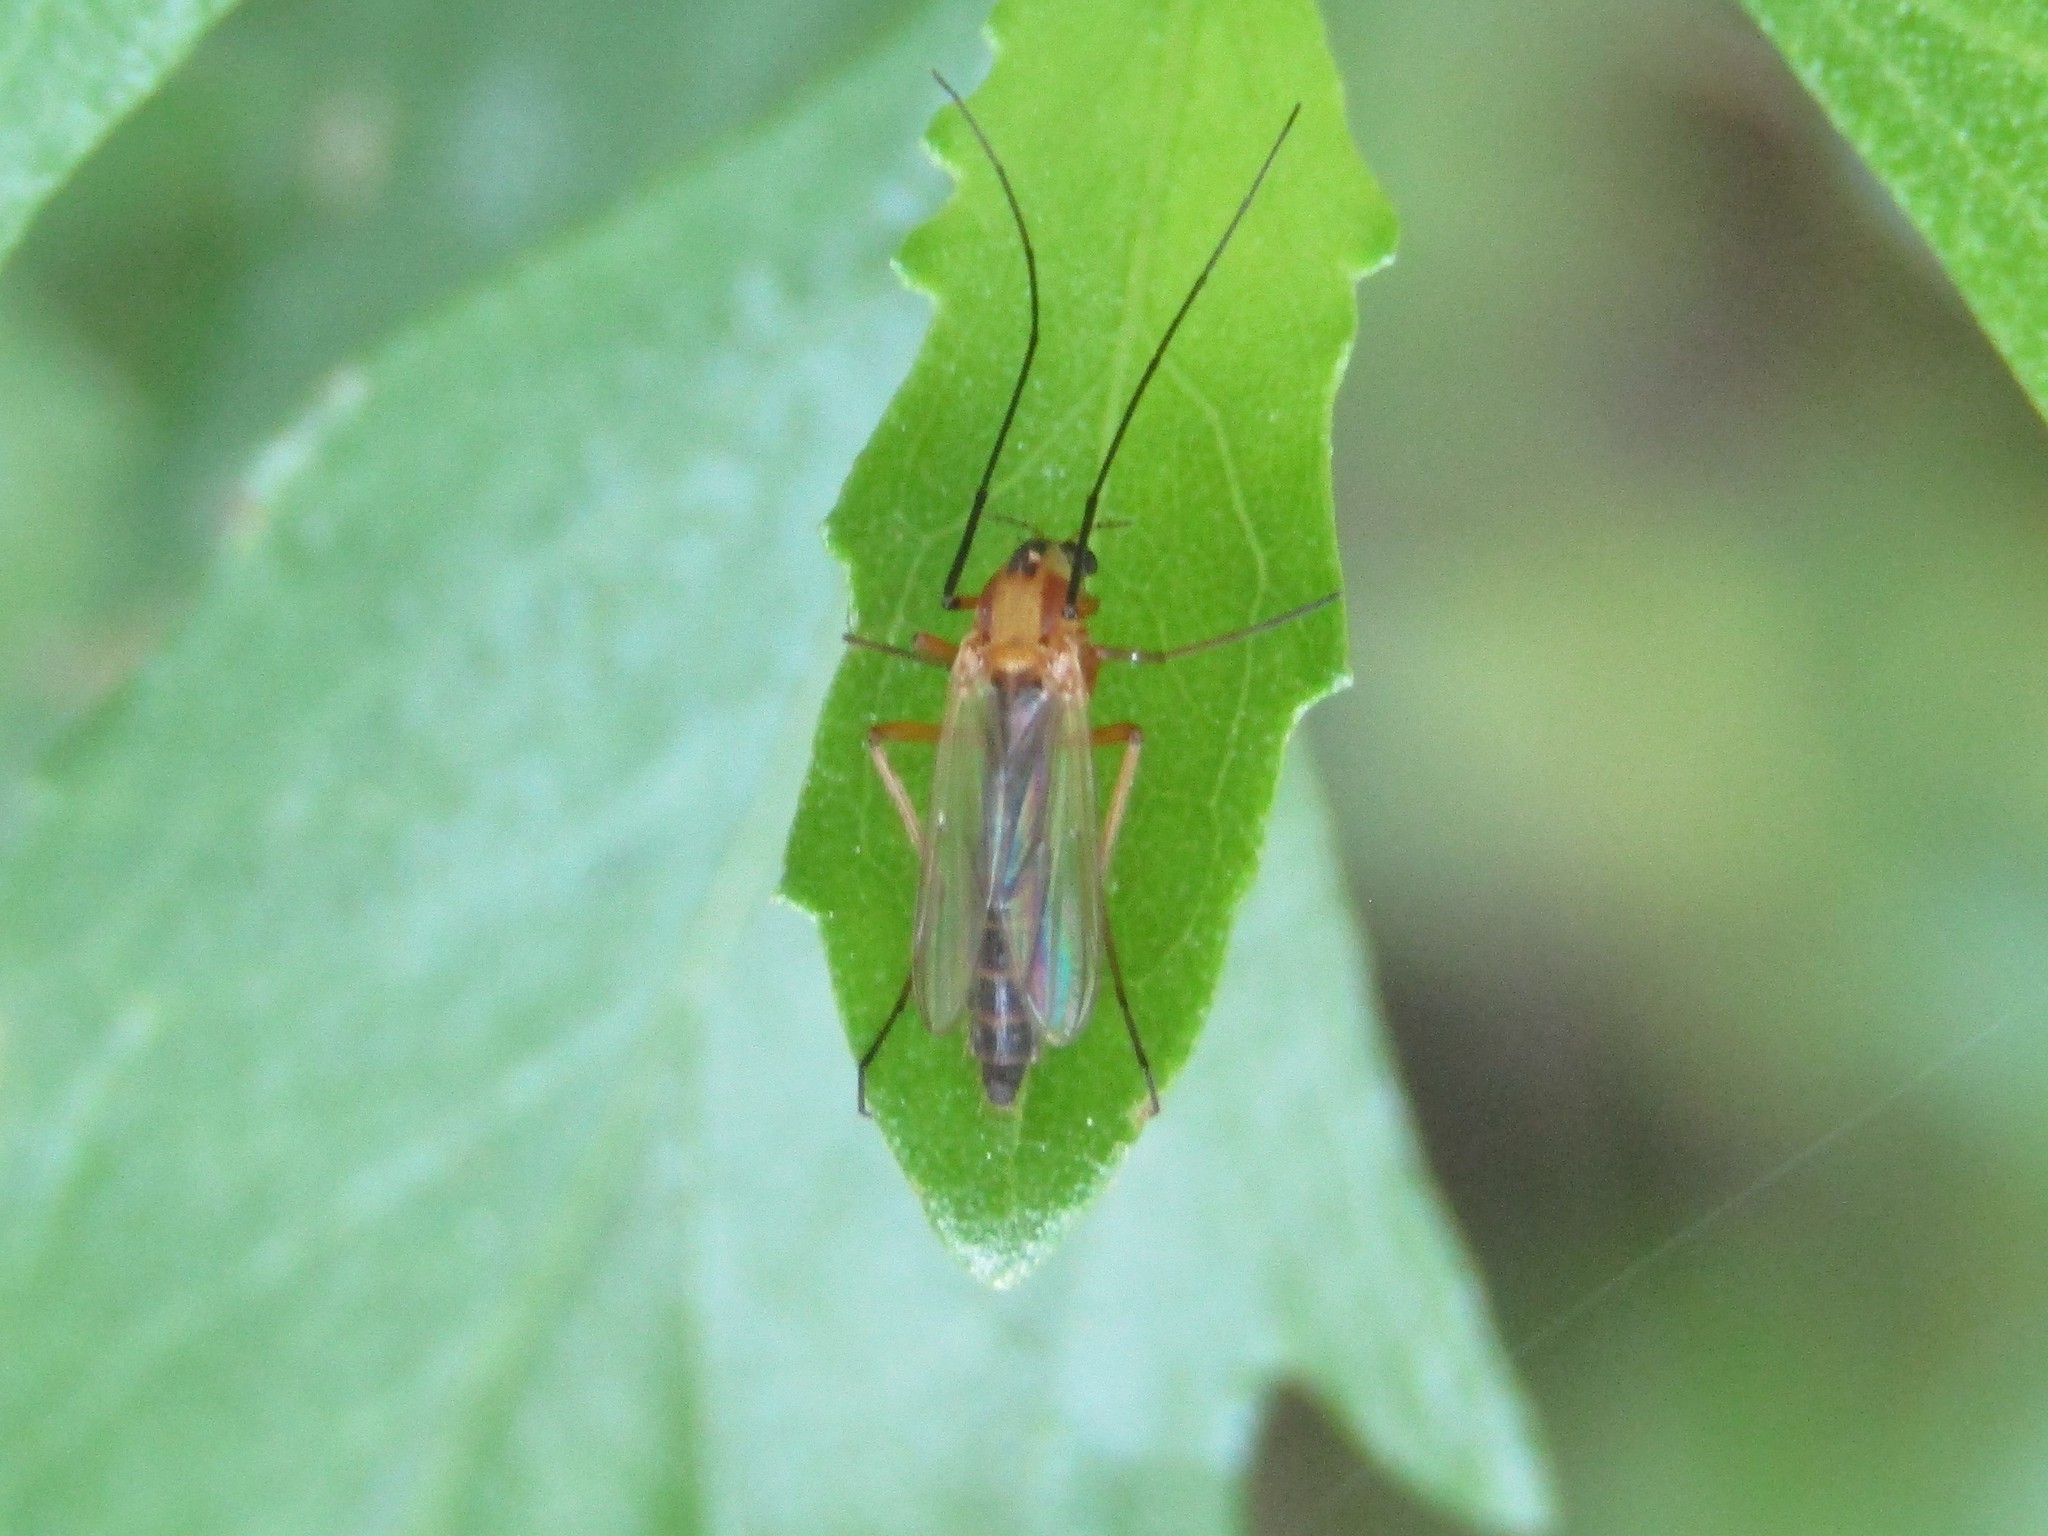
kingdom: Animalia
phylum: Arthropoda
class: Insecta
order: Diptera
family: Chironomidae
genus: Chironomus
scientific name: Chironomus ochreatus
